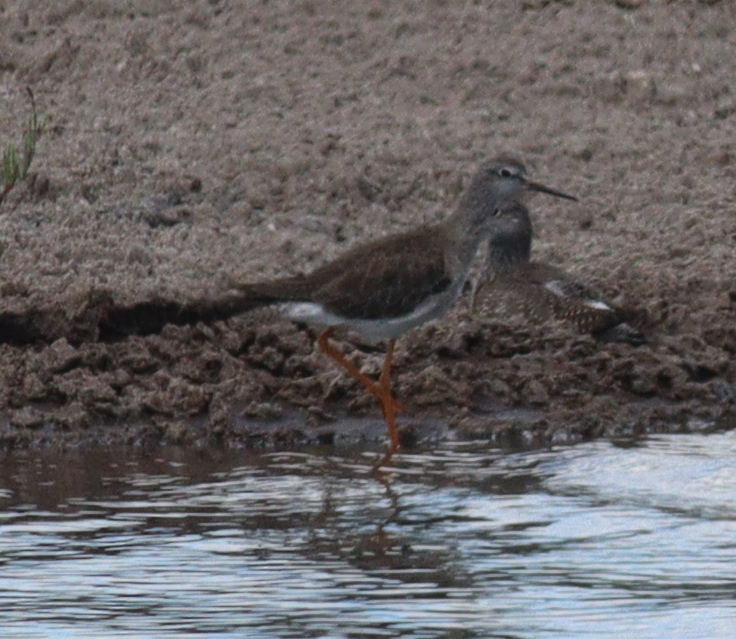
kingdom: Animalia
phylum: Chordata
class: Aves
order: Charadriiformes
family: Scolopacidae
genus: Tringa
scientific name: Tringa flavipes
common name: Lesser yellowlegs
